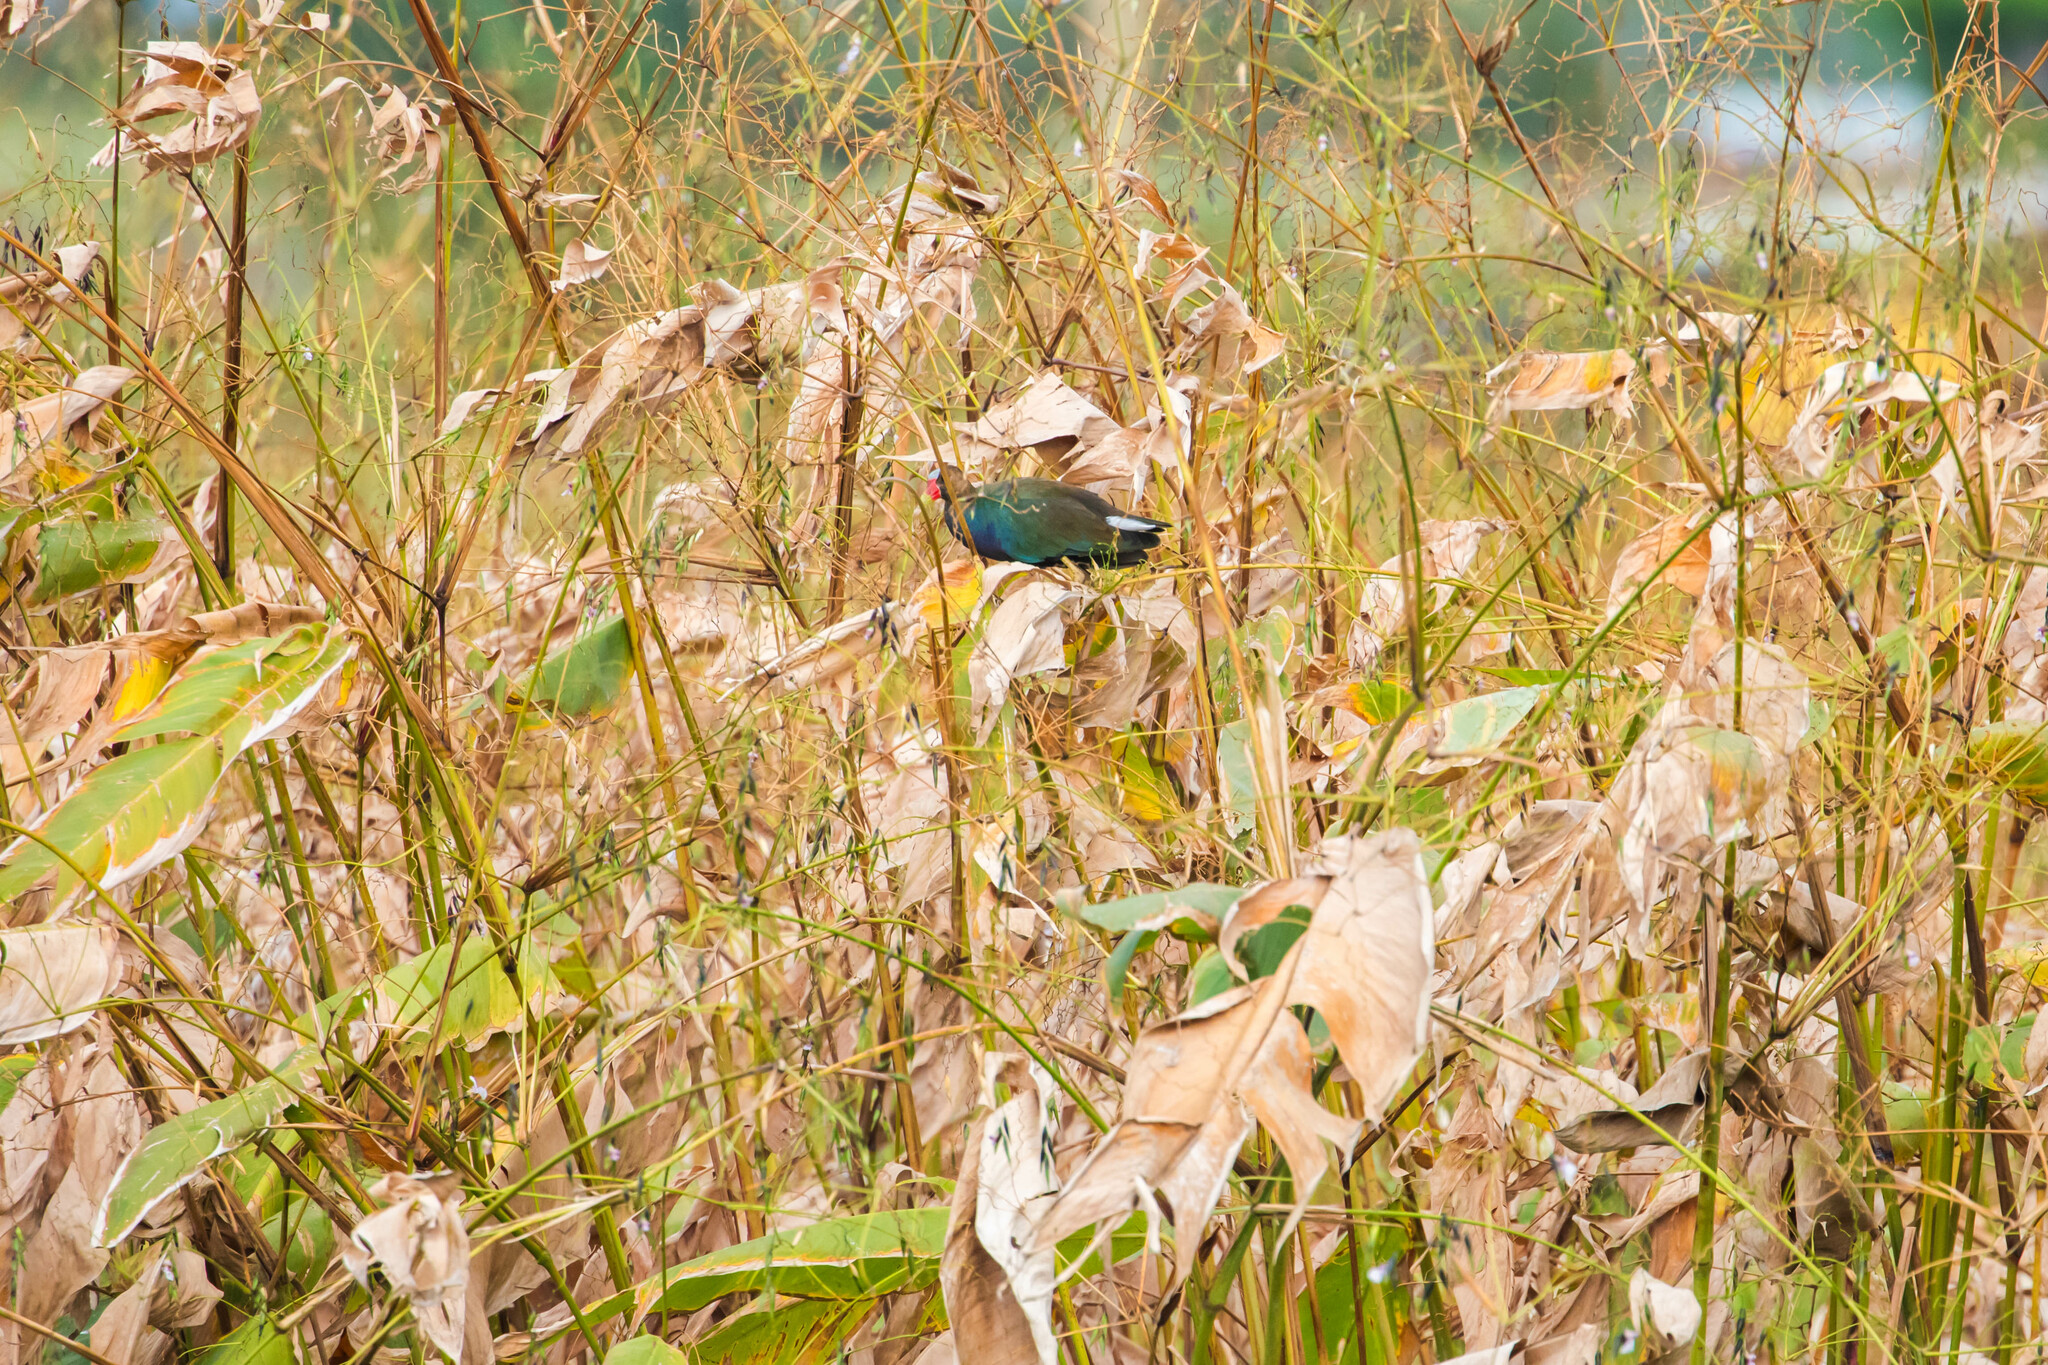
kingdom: Animalia
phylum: Chordata
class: Aves
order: Gruiformes
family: Rallidae
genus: Porphyrio
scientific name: Porphyrio martinica
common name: Purple gallinule
